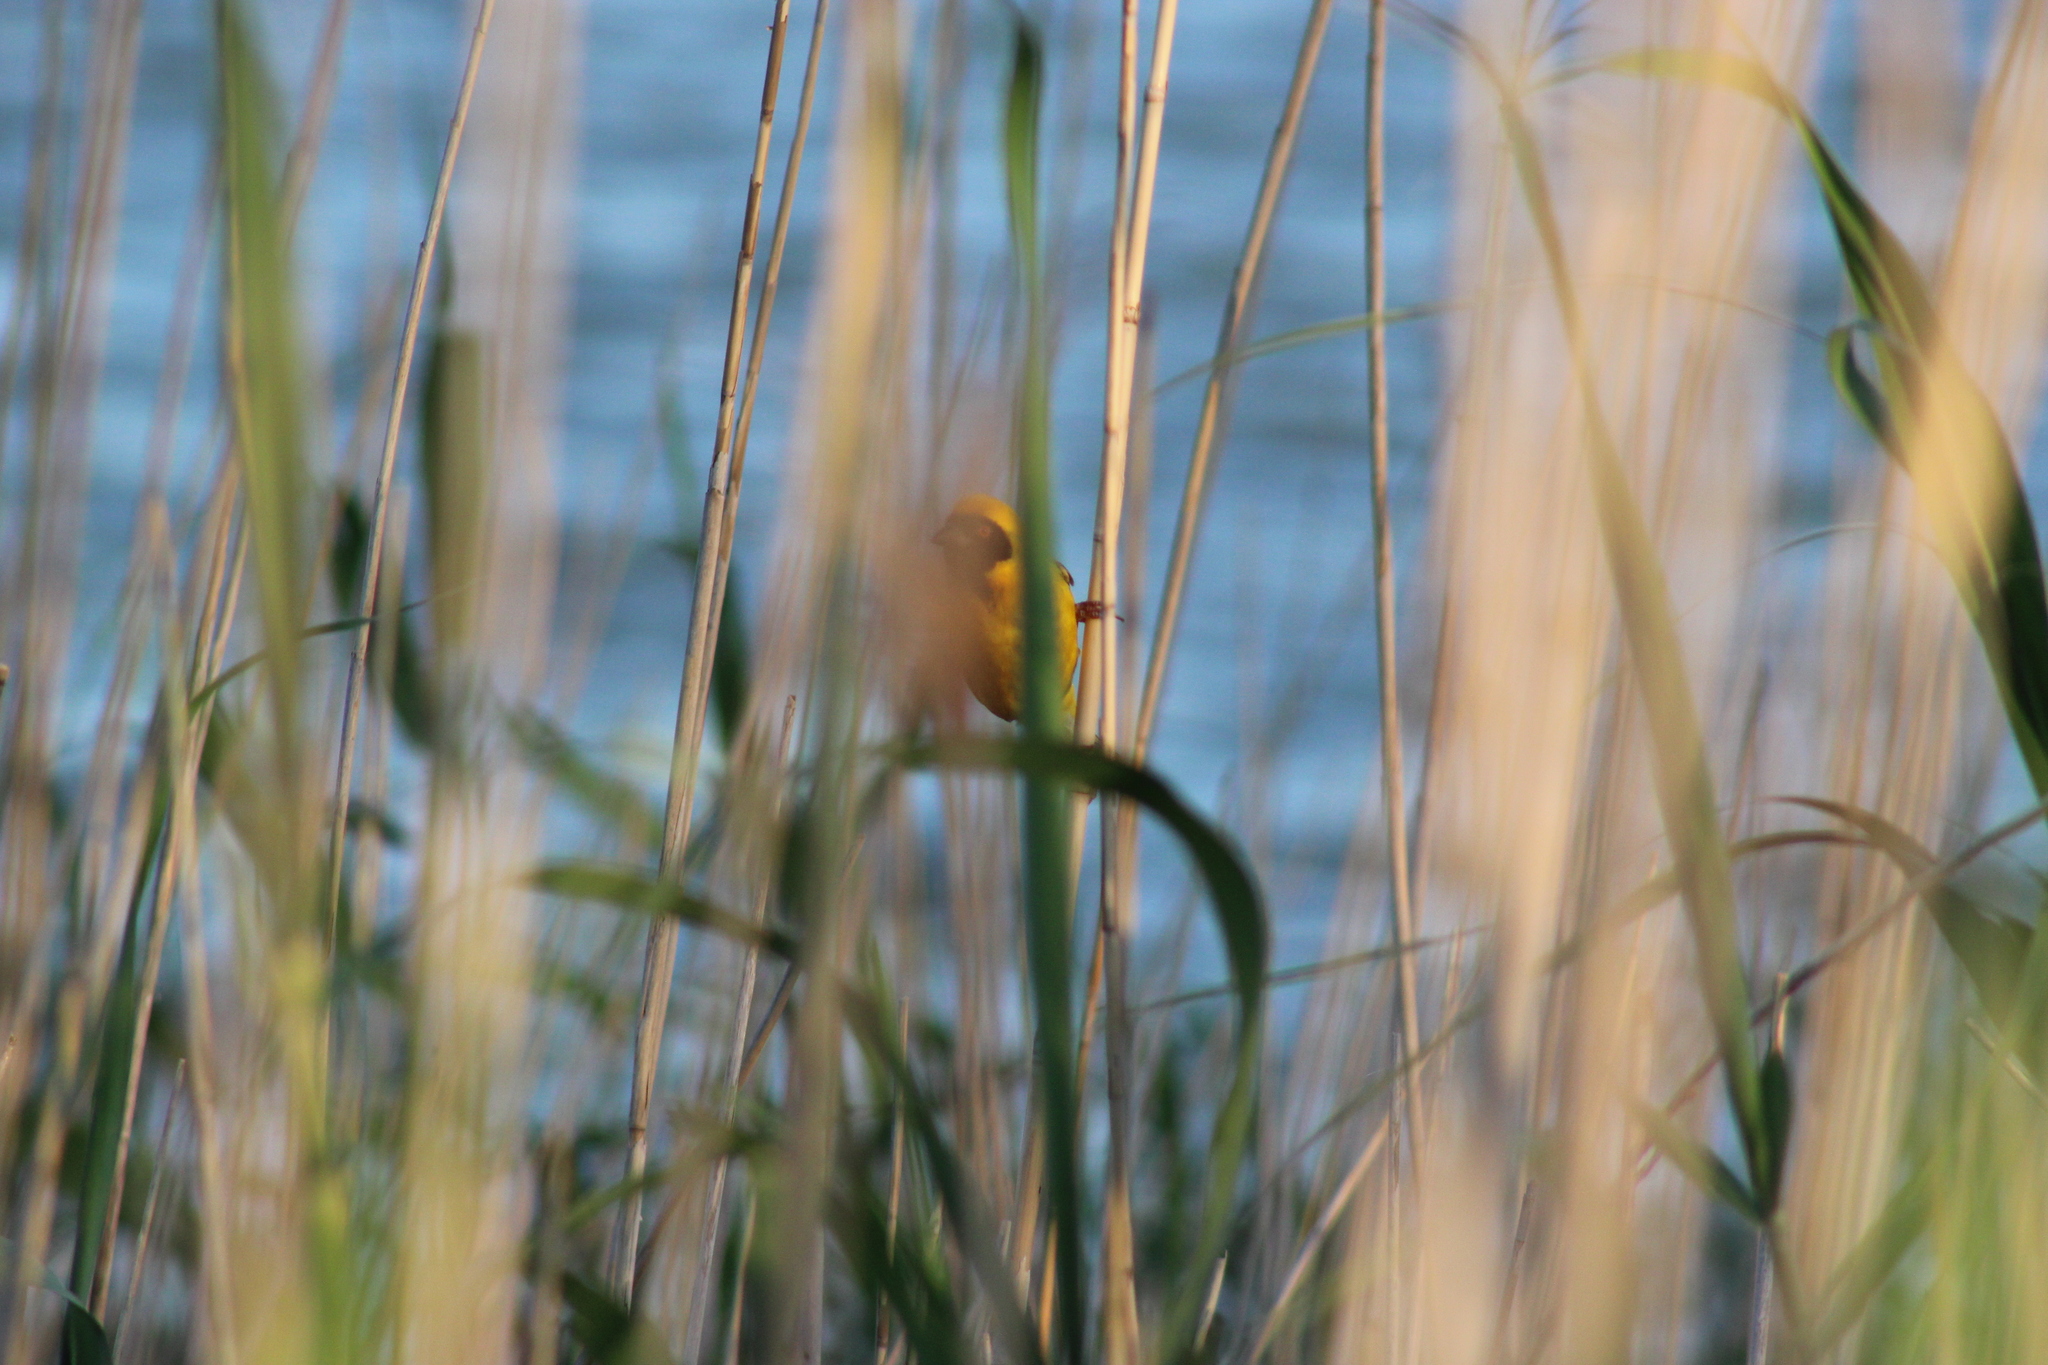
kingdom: Animalia
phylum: Chordata
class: Aves
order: Passeriformes
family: Ploceidae
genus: Ploceus
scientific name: Ploceus velatus
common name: Southern masked weaver
